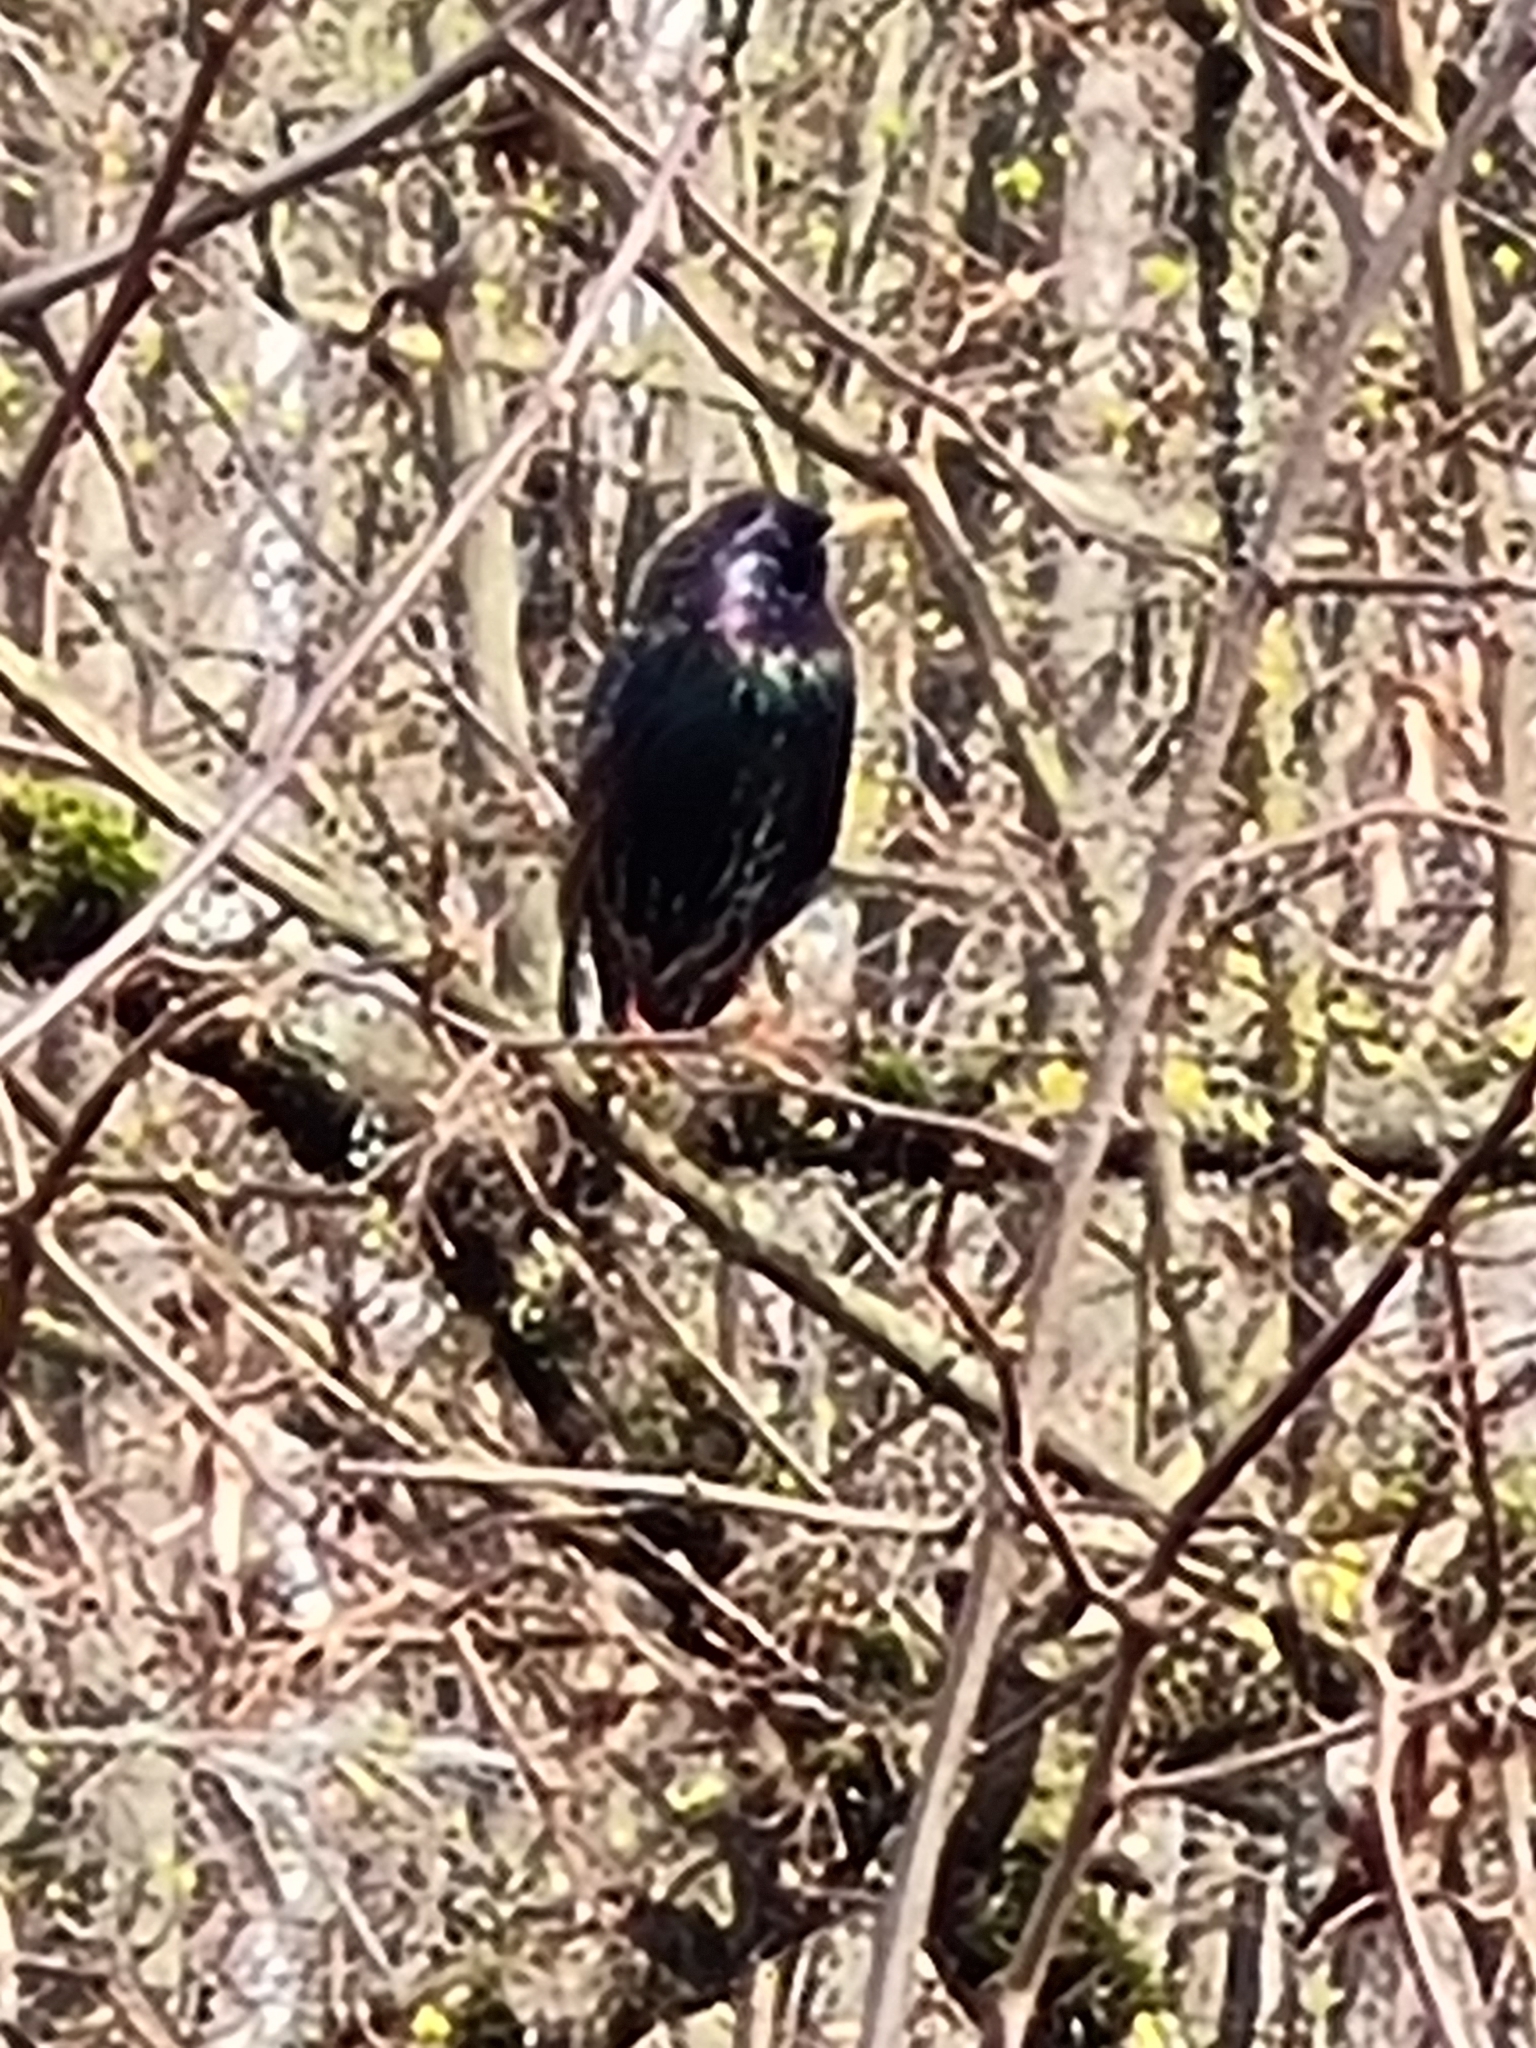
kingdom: Animalia
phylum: Chordata
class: Aves
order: Passeriformes
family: Sturnidae
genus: Sturnus
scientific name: Sturnus vulgaris
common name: Common starling
